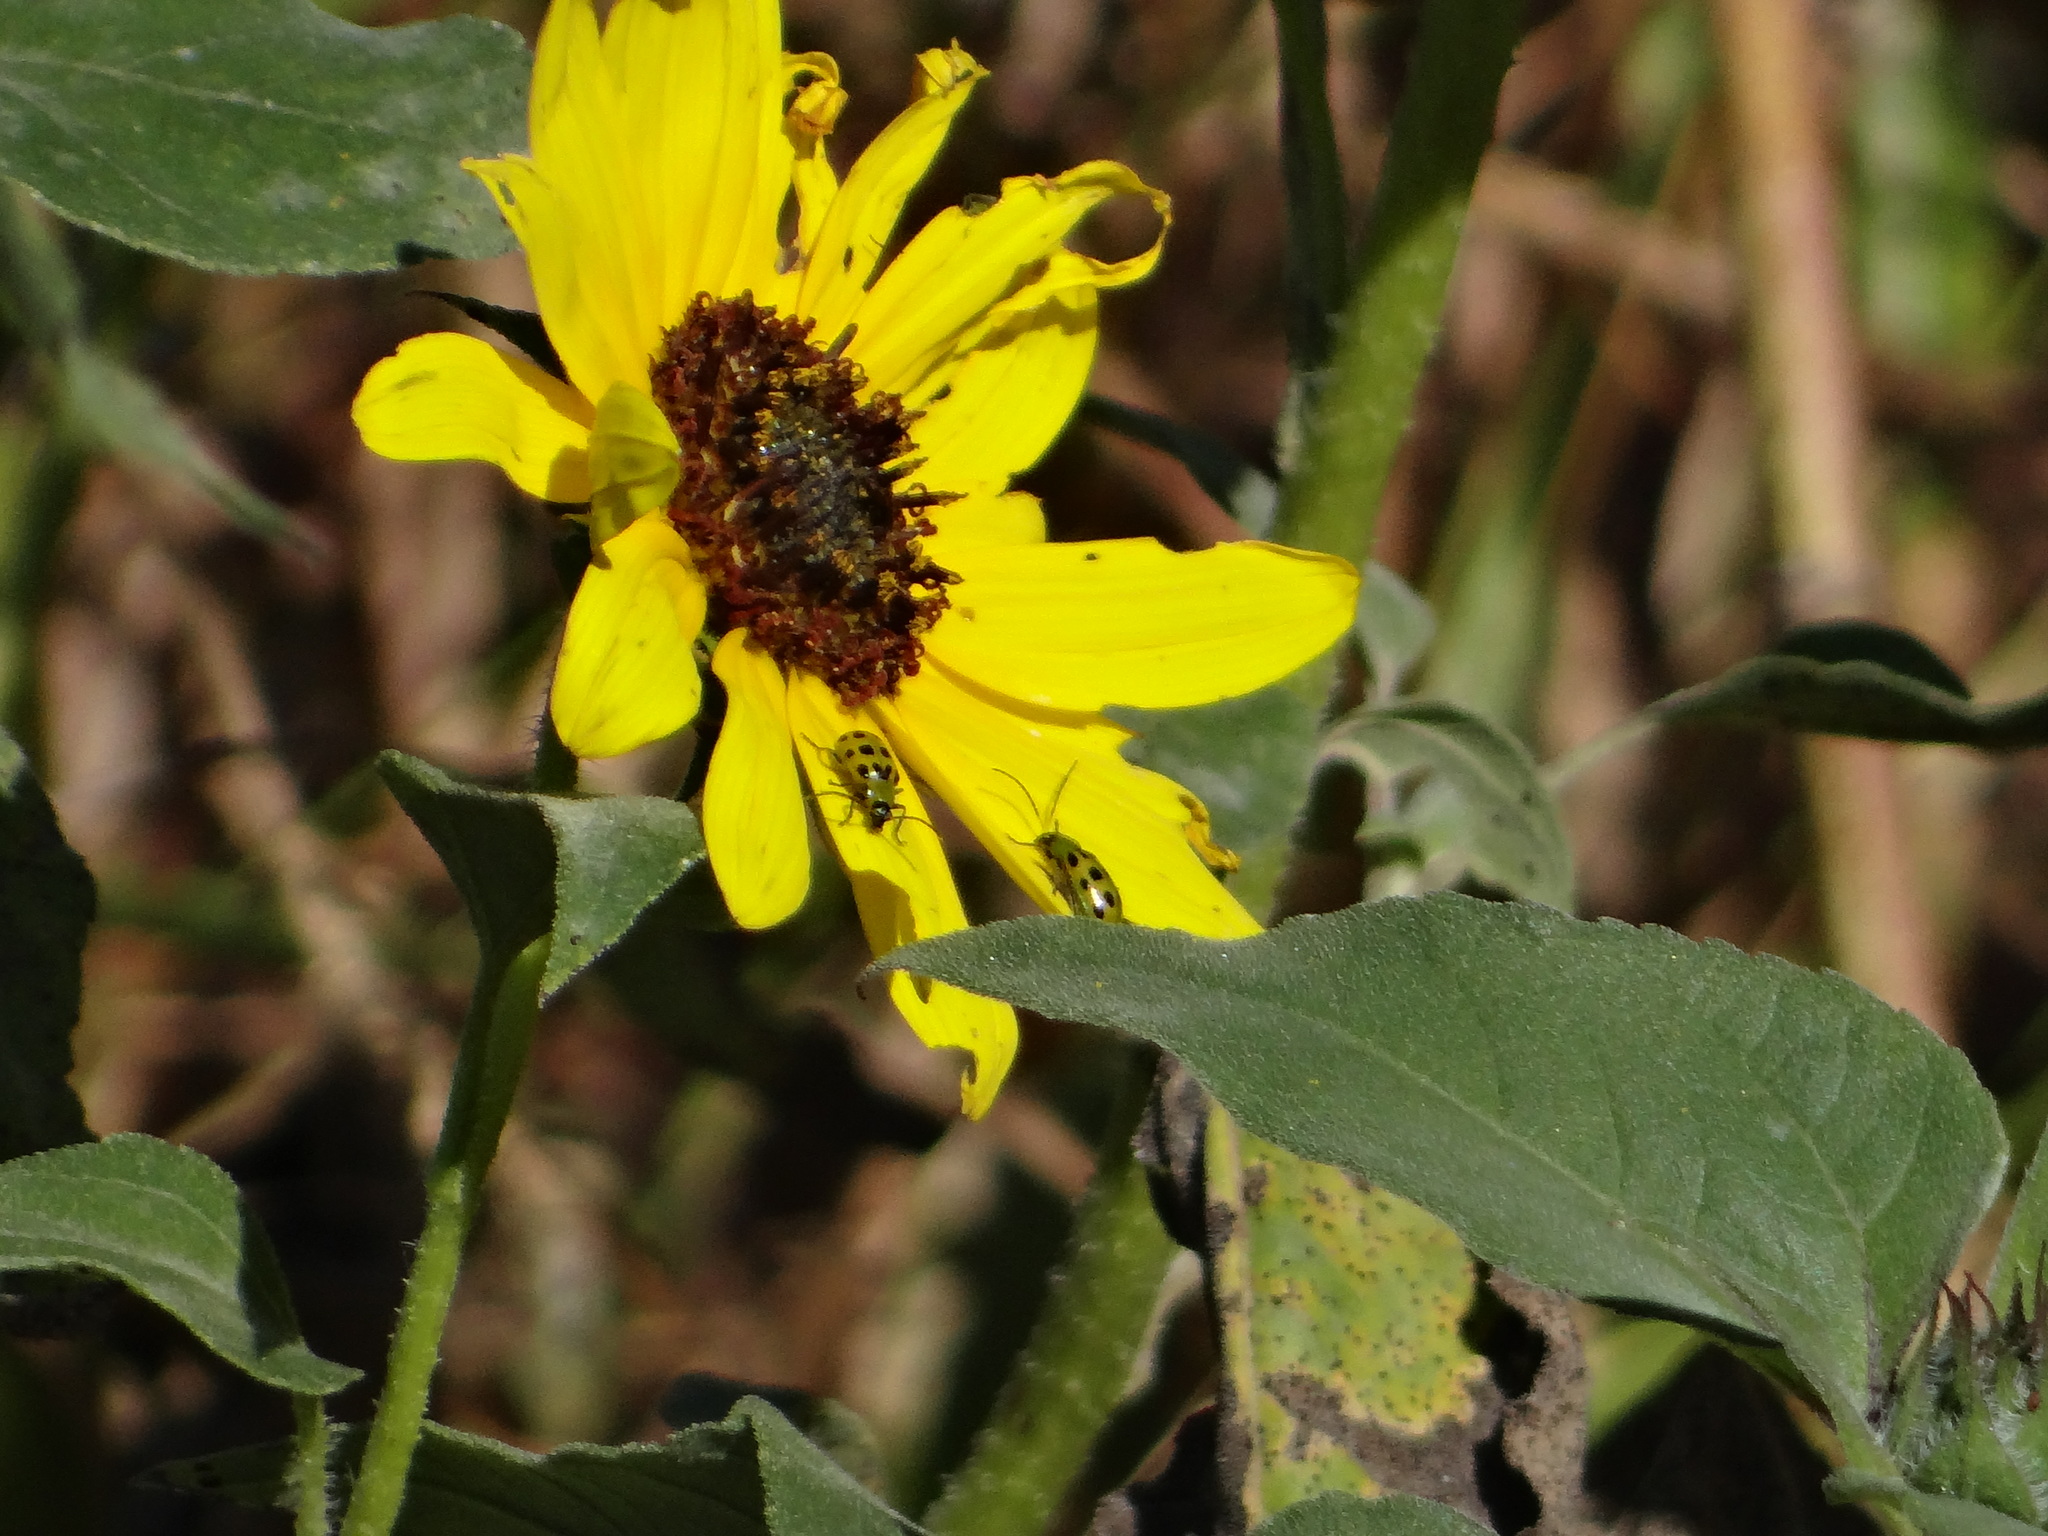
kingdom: Animalia
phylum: Arthropoda
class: Insecta
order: Coleoptera
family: Chrysomelidae
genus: Diabrotica
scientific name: Diabrotica undecimpunctata
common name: Spotted cucumber beetle
